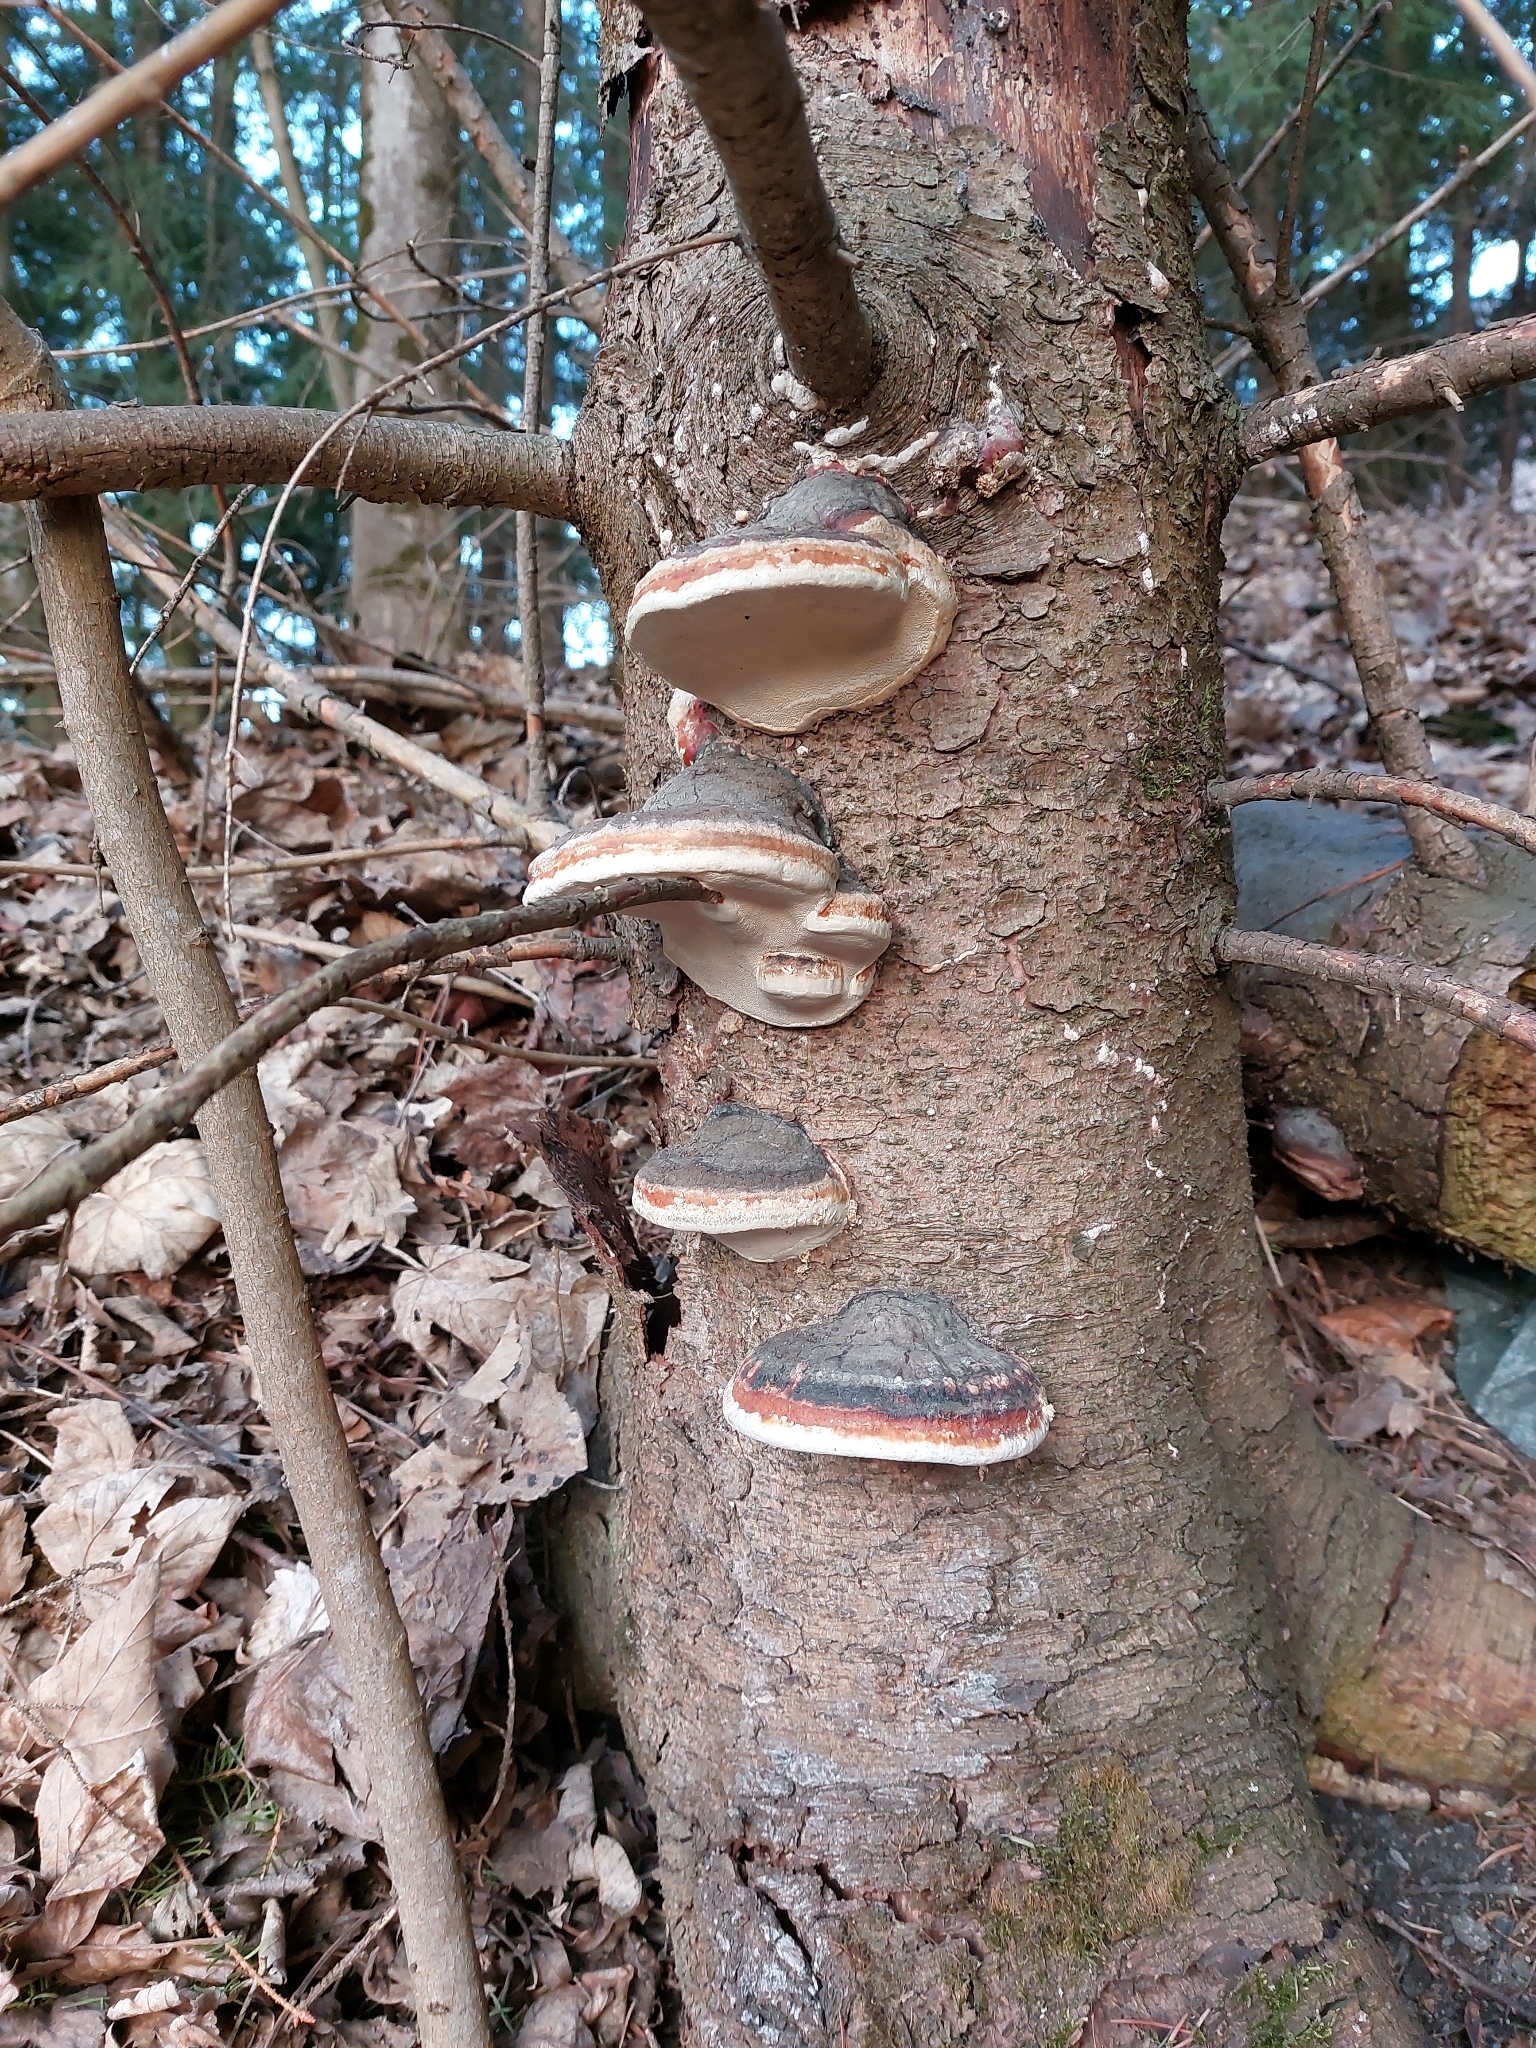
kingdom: Fungi
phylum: Basidiomycota
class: Agaricomycetes
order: Polyporales
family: Fomitopsidaceae
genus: Fomitopsis
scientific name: Fomitopsis pinicola
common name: Red-belted bracket
